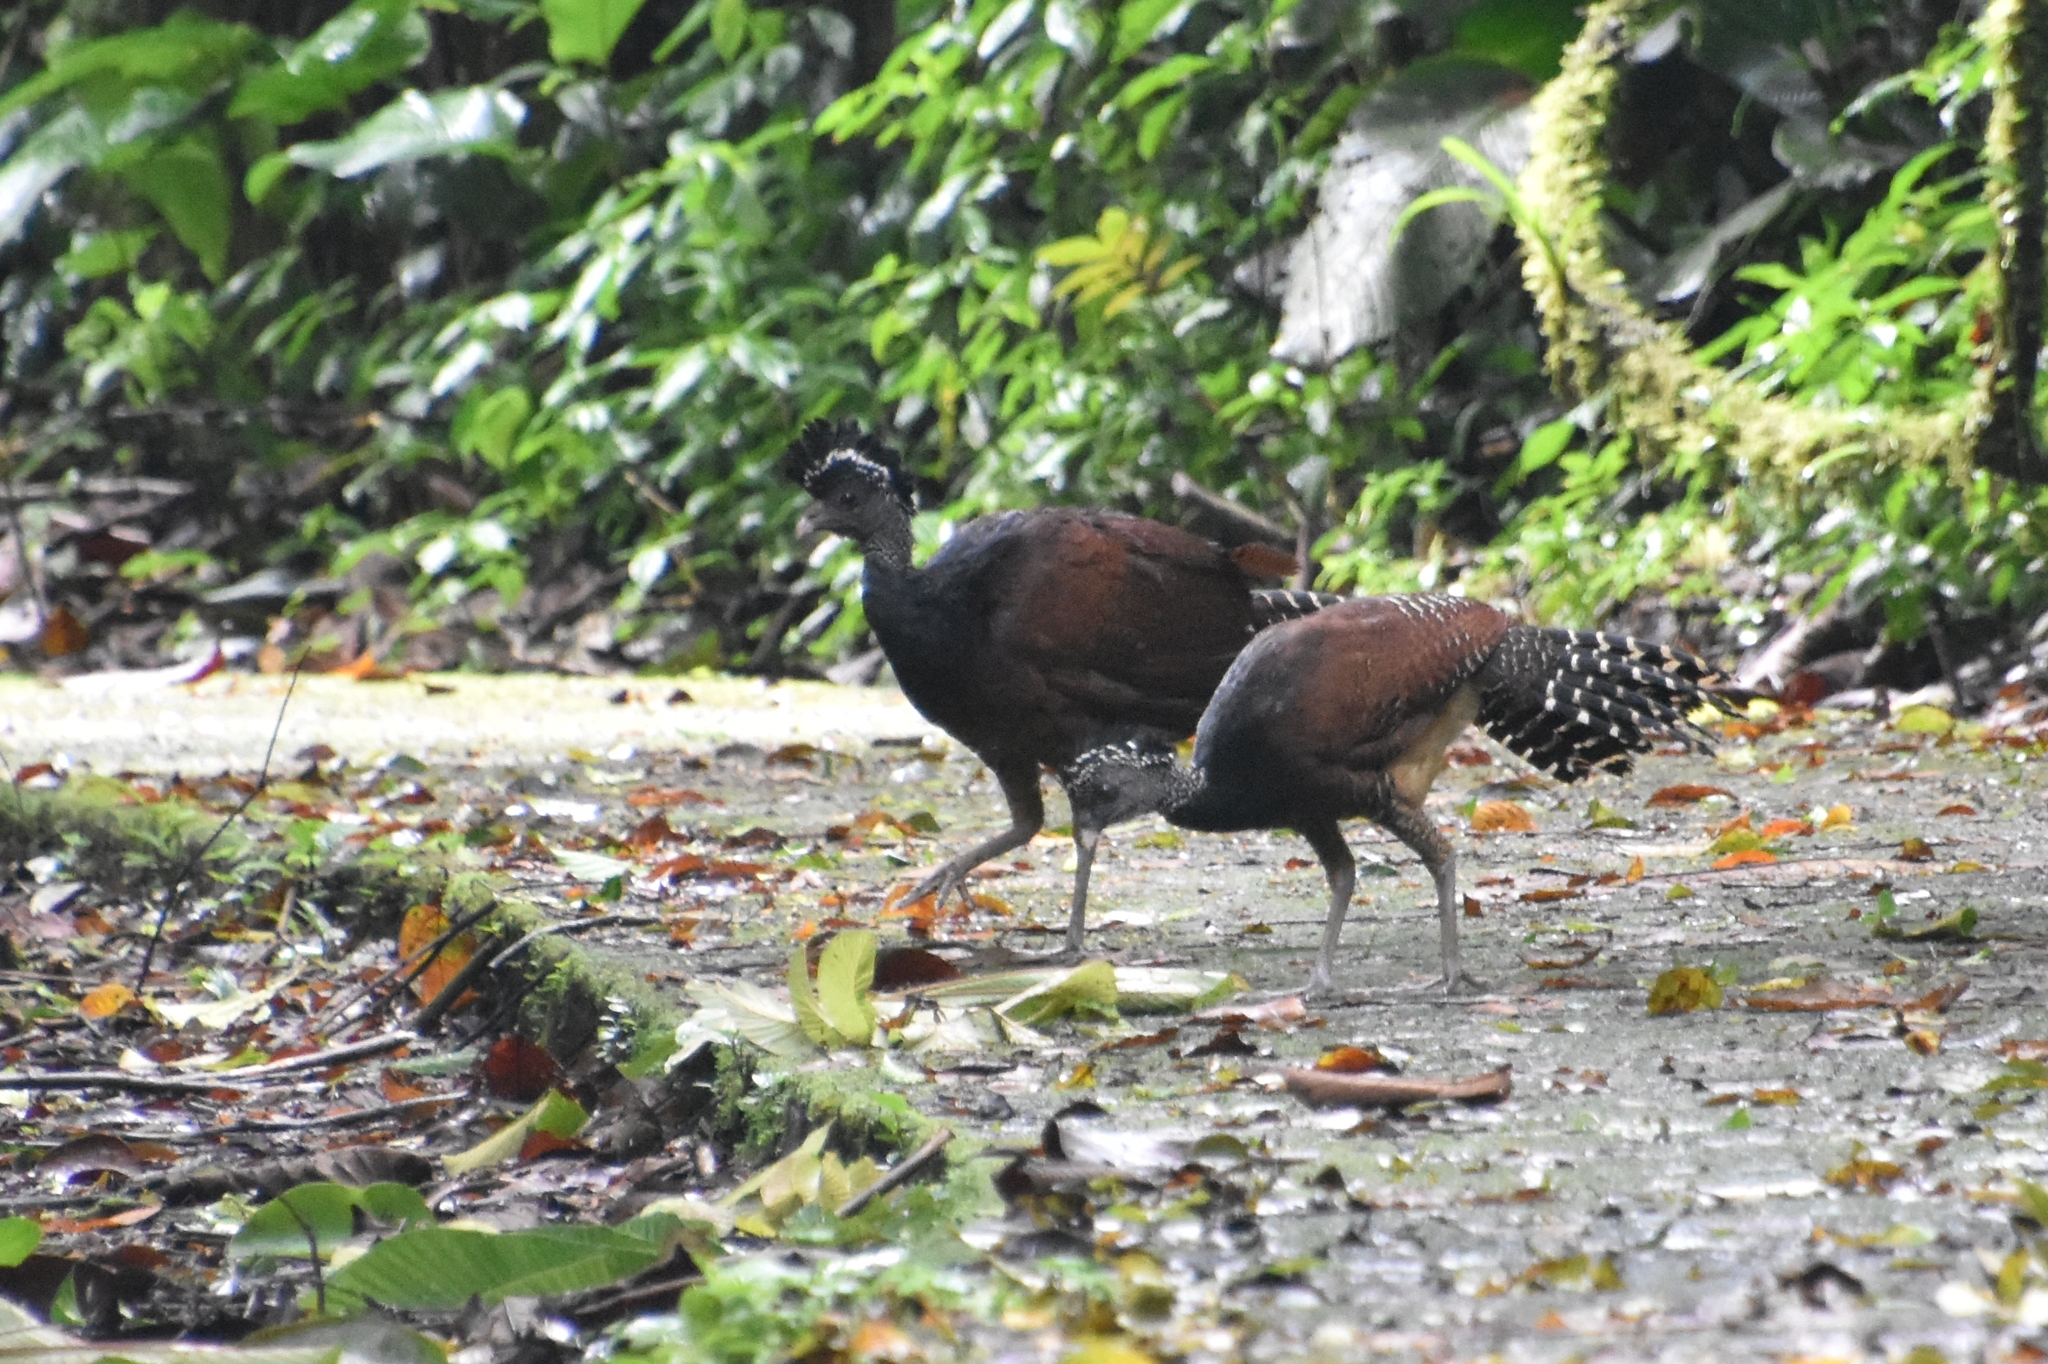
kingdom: Animalia
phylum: Chordata
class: Aves
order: Galliformes
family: Cracidae
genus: Crax
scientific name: Crax rubra
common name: Great curassow
